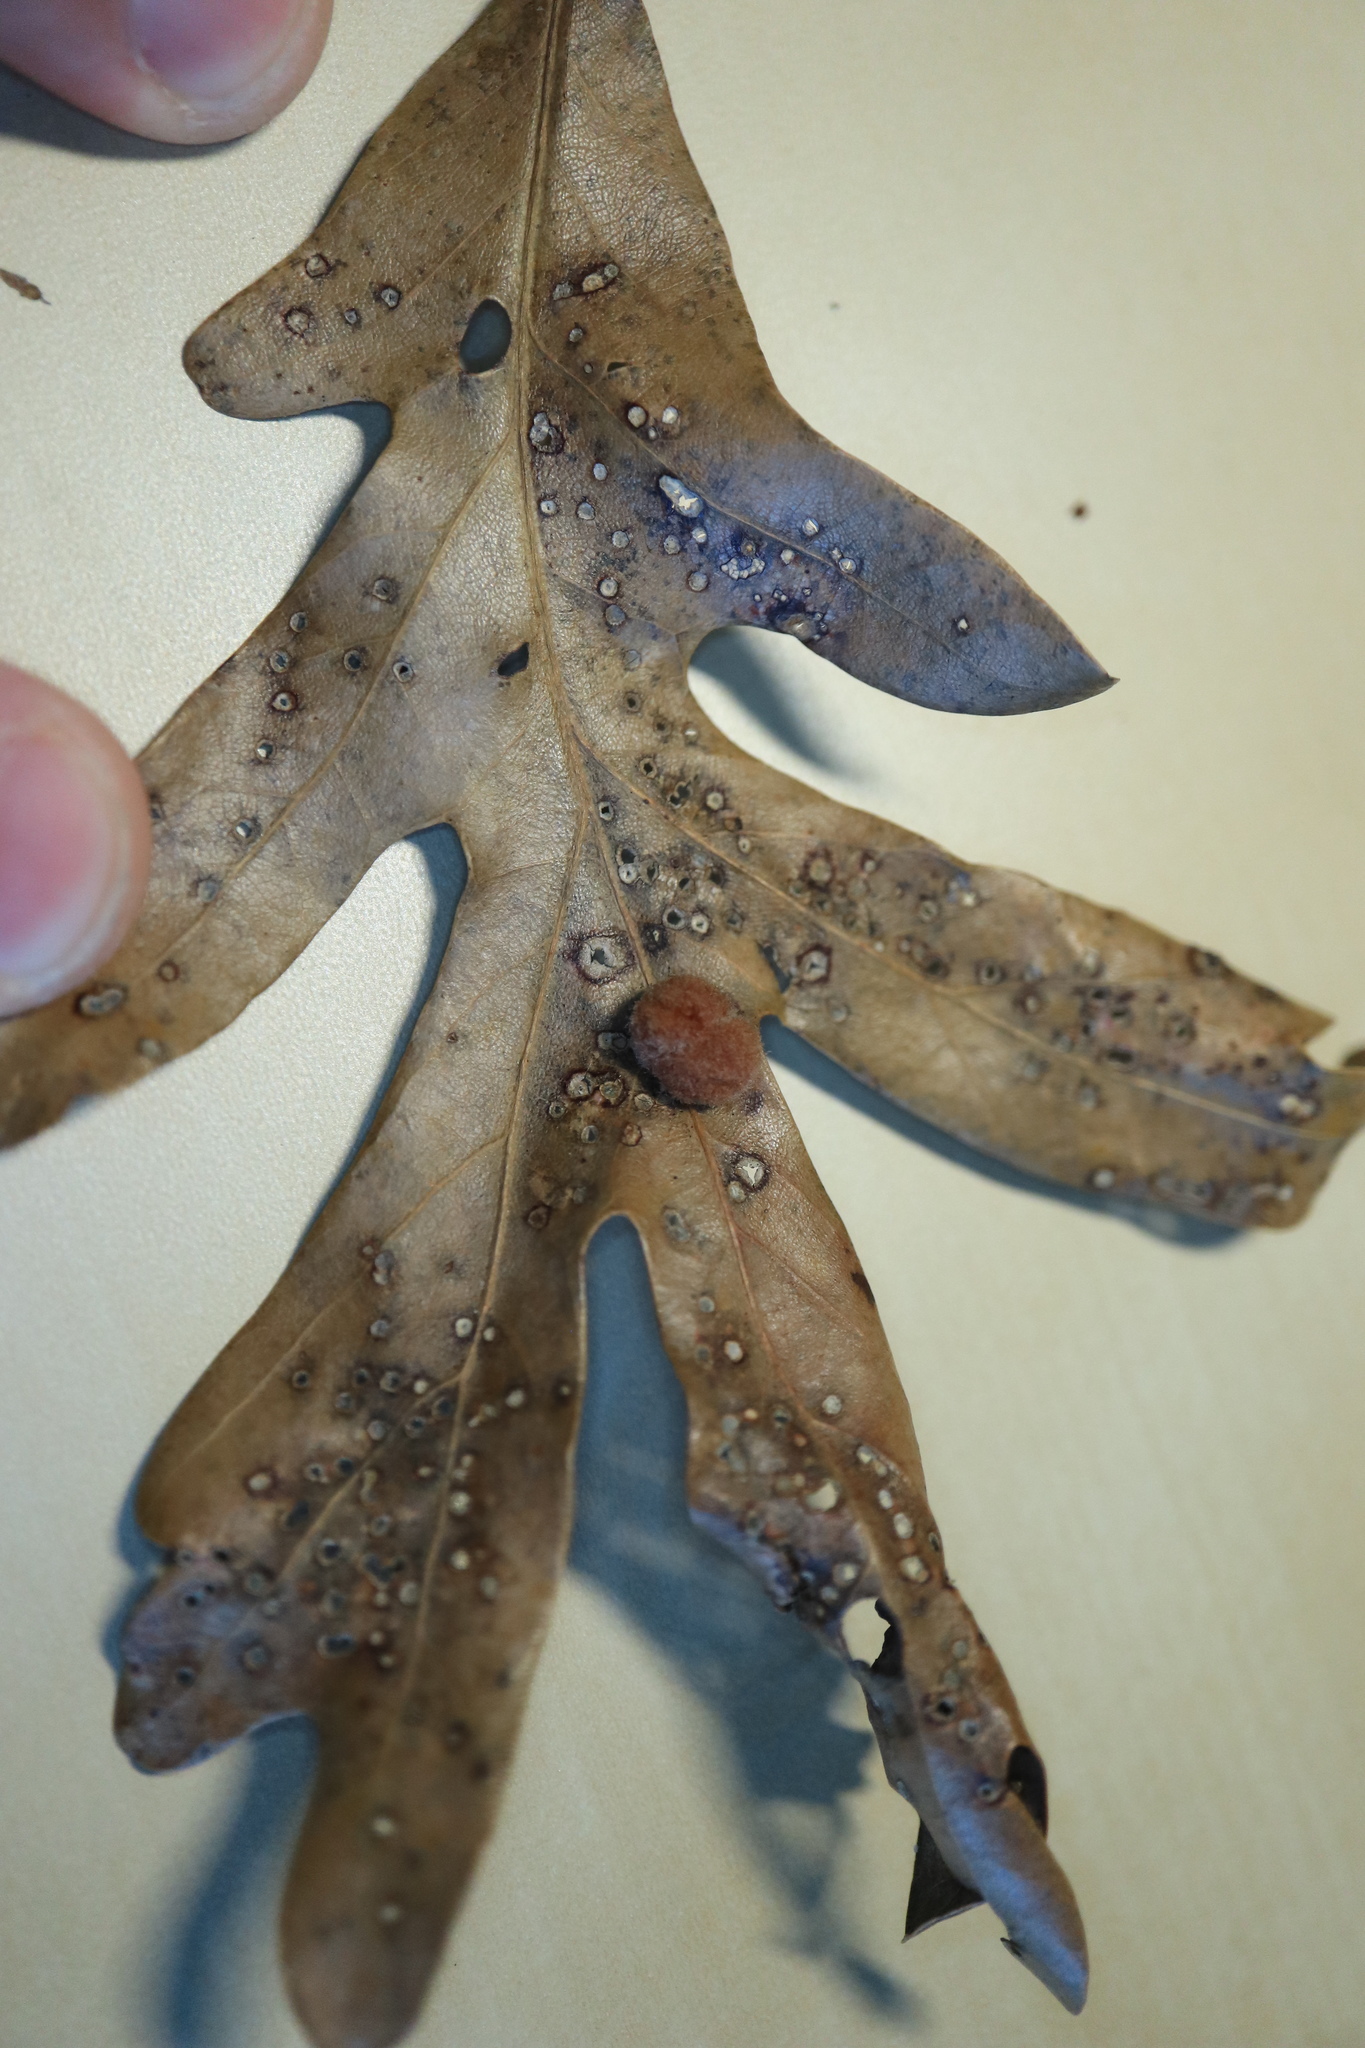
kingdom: Animalia
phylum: Arthropoda
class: Insecta
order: Hymenoptera
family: Cynipidae
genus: Andricus
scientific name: Andricus quercusflocci
